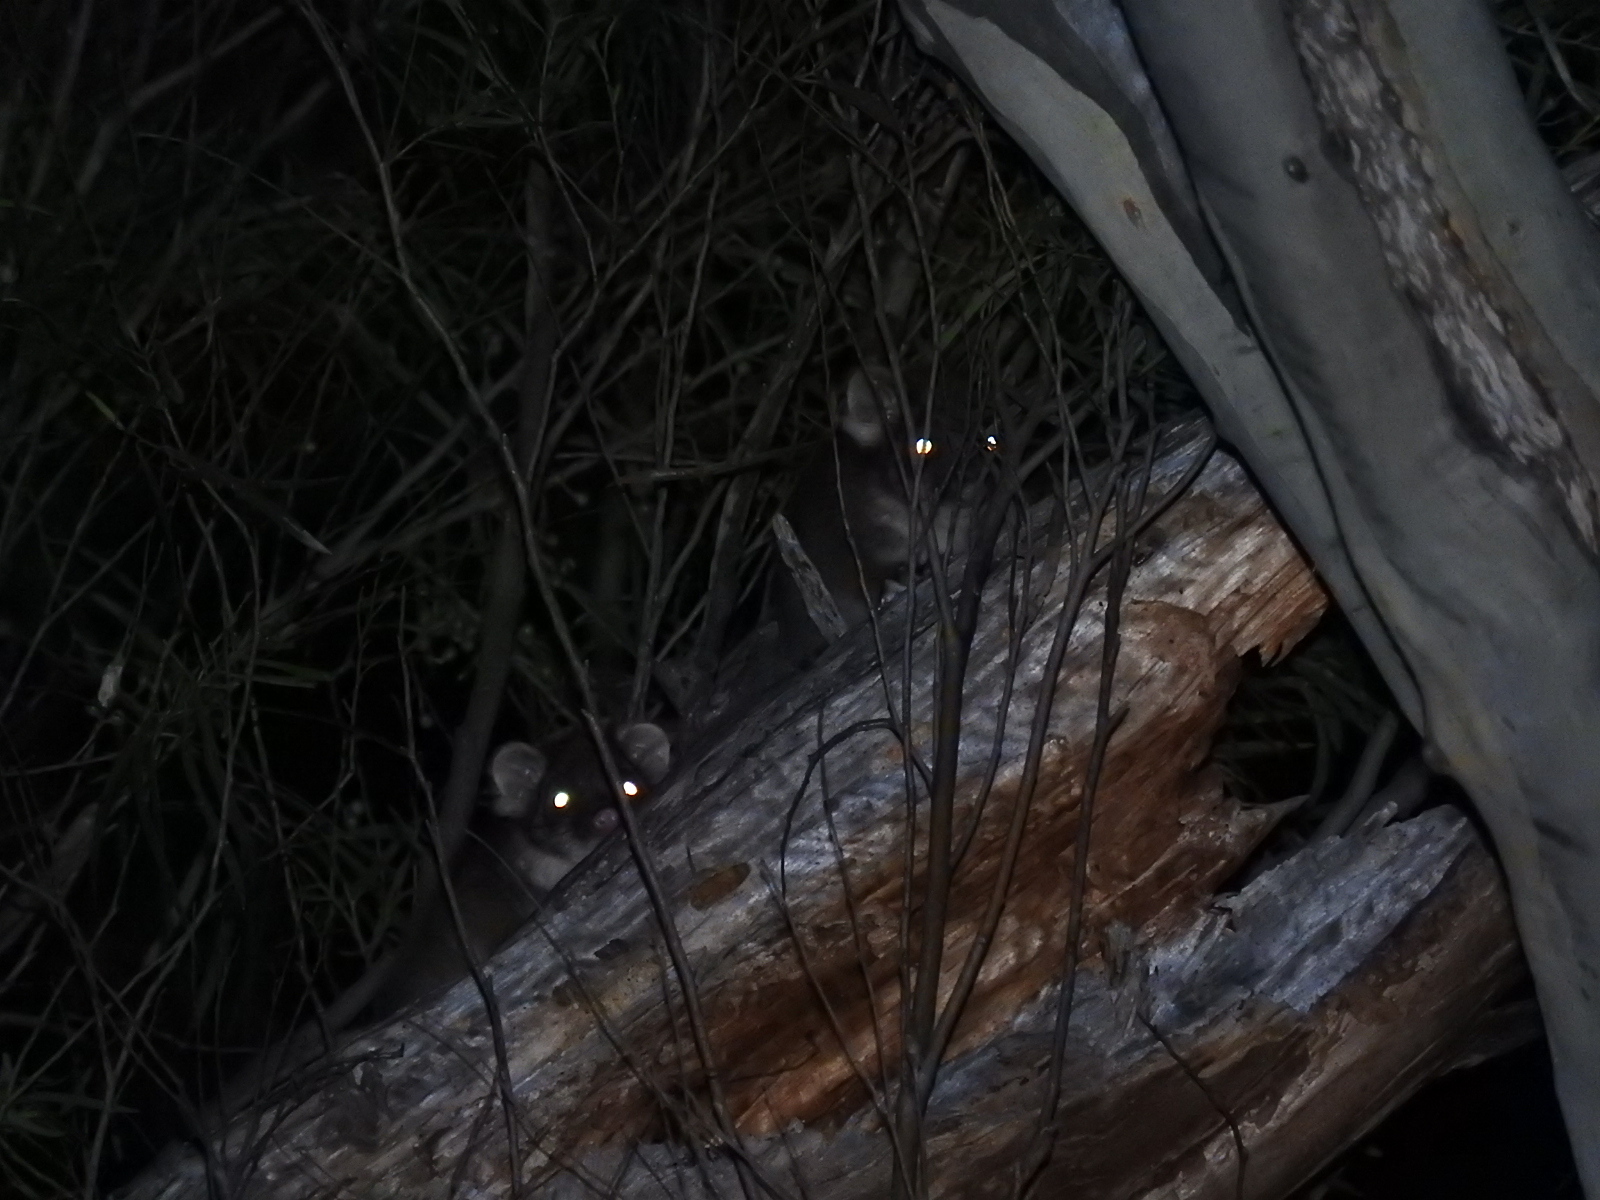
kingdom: Animalia
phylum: Chordata
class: Mammalia
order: Diprotodontia
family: Pseudocheiridae
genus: Pseudocheirus
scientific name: Pseudocheirus peregrinus
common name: Common ringtail possum
